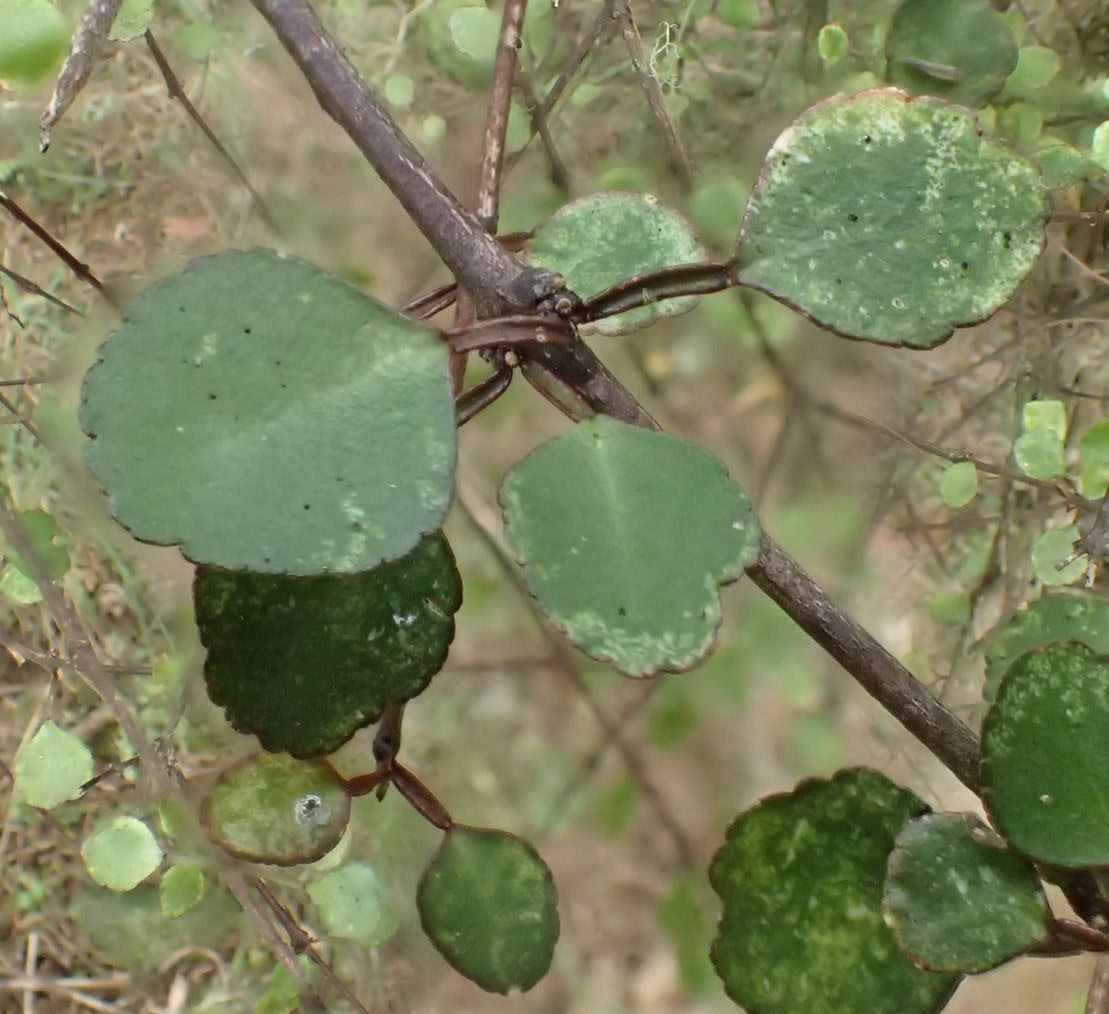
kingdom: Plantae
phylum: Tracheophyta
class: Magnoliopsida
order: Sapindales
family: Rutaceae
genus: Melicope
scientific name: Melicope simplex
